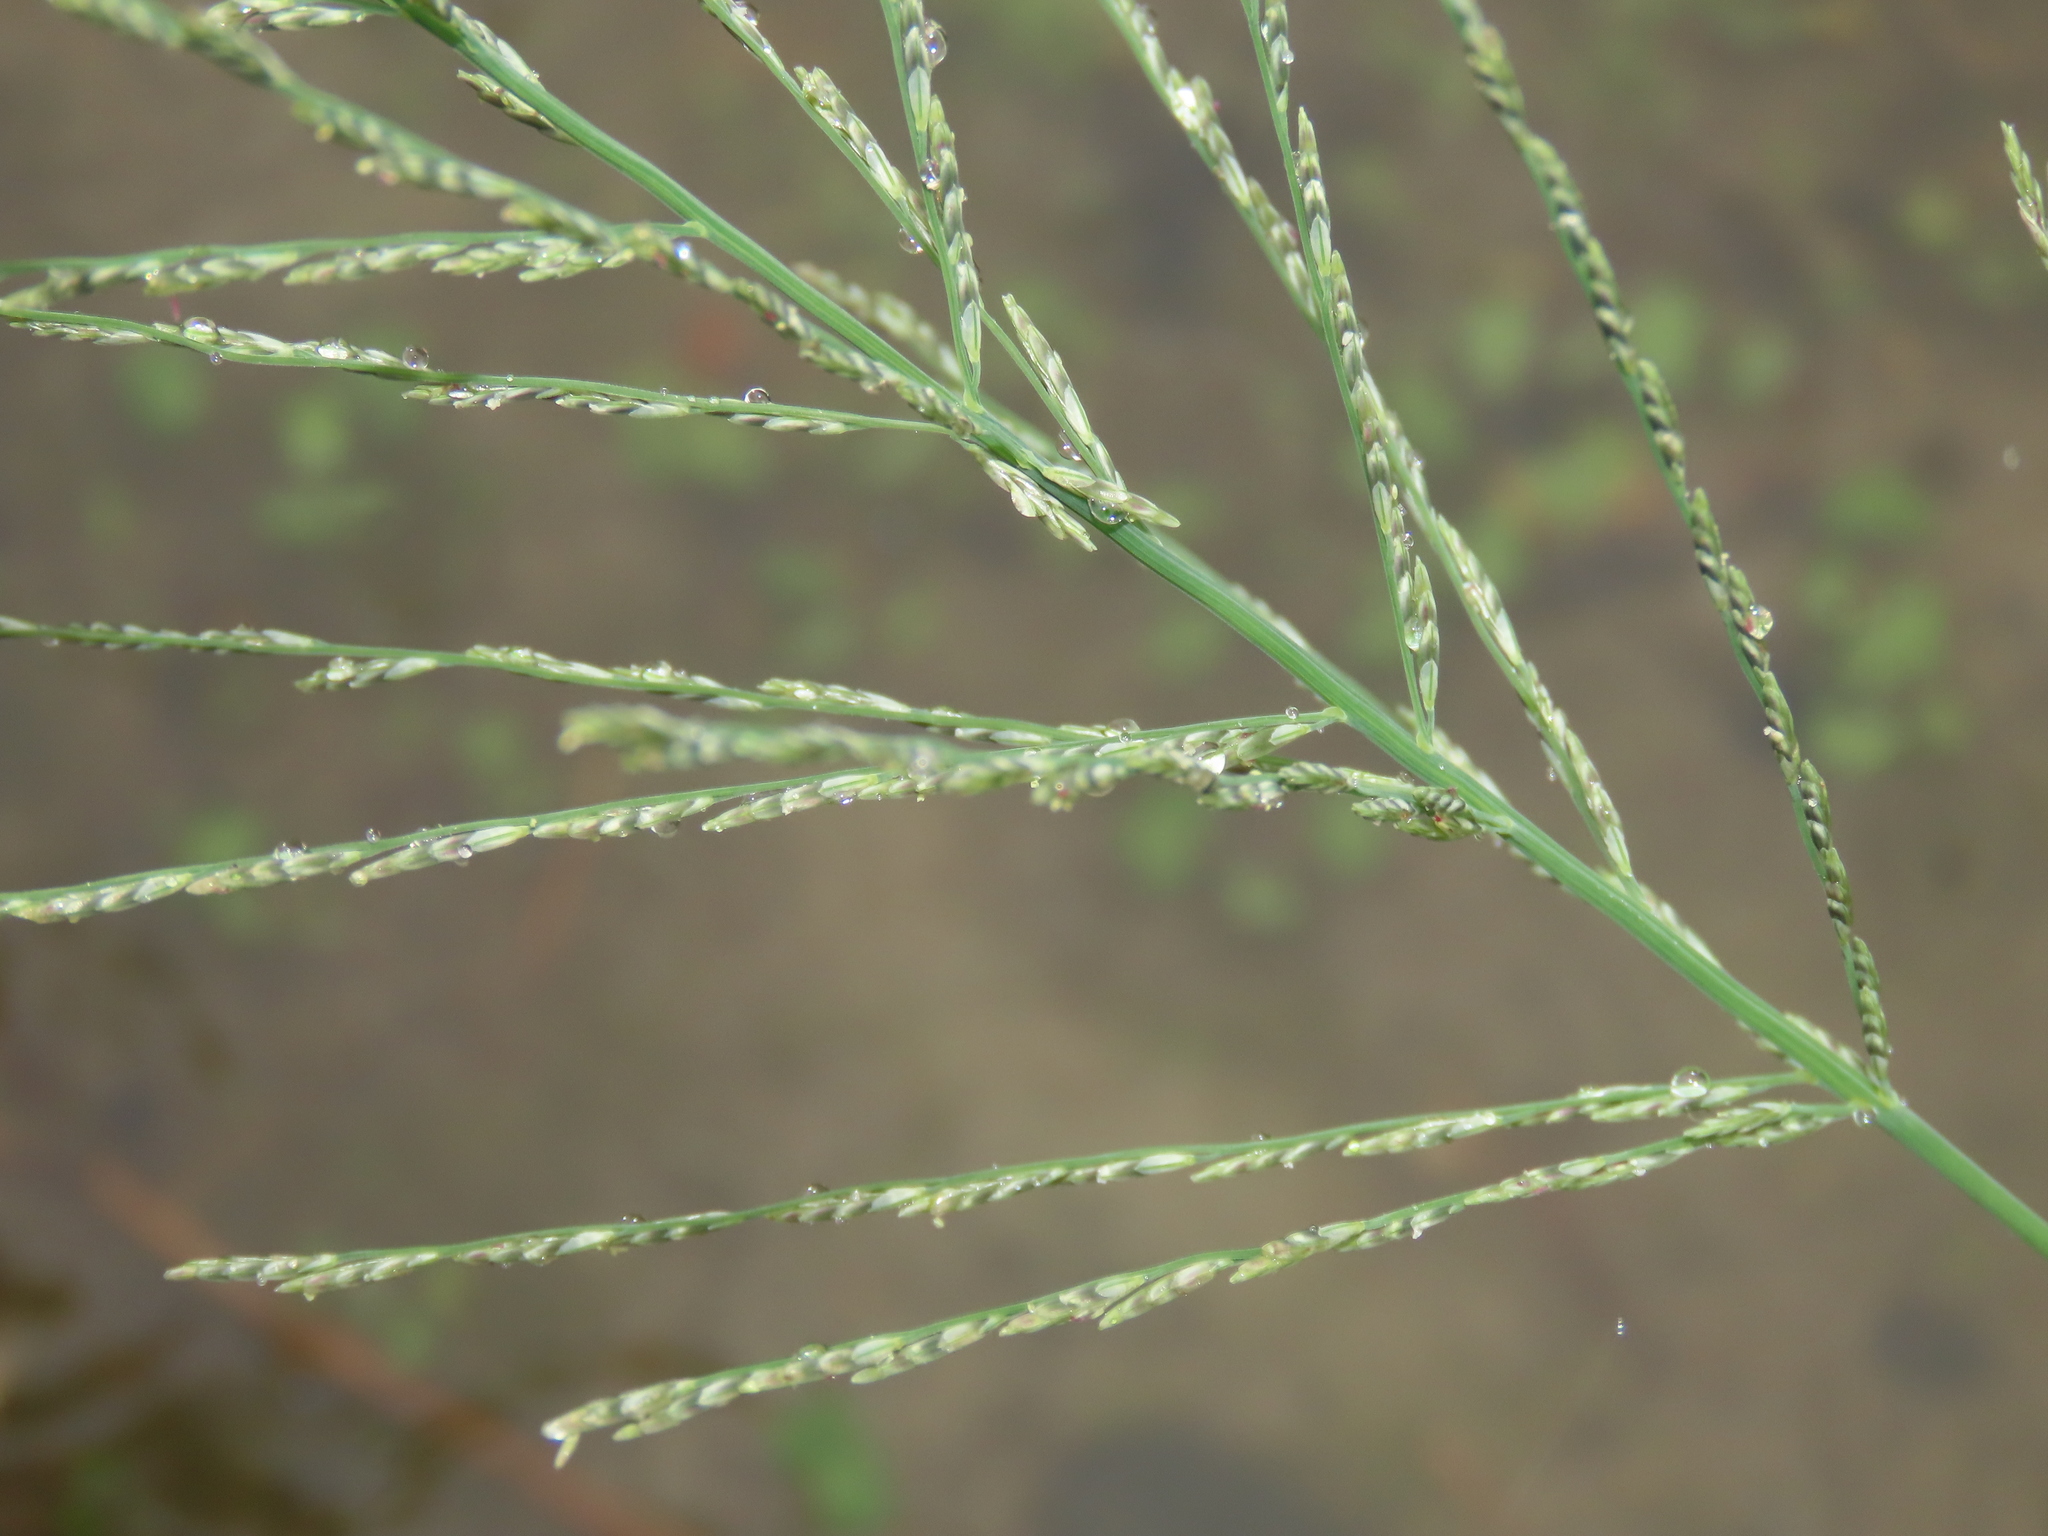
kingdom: Plantae
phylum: Tracheophyta
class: Liliopsida
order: Poales
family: Poaceae
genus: Diplachne
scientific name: Diplachne fusca
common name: Brown beetle grass
